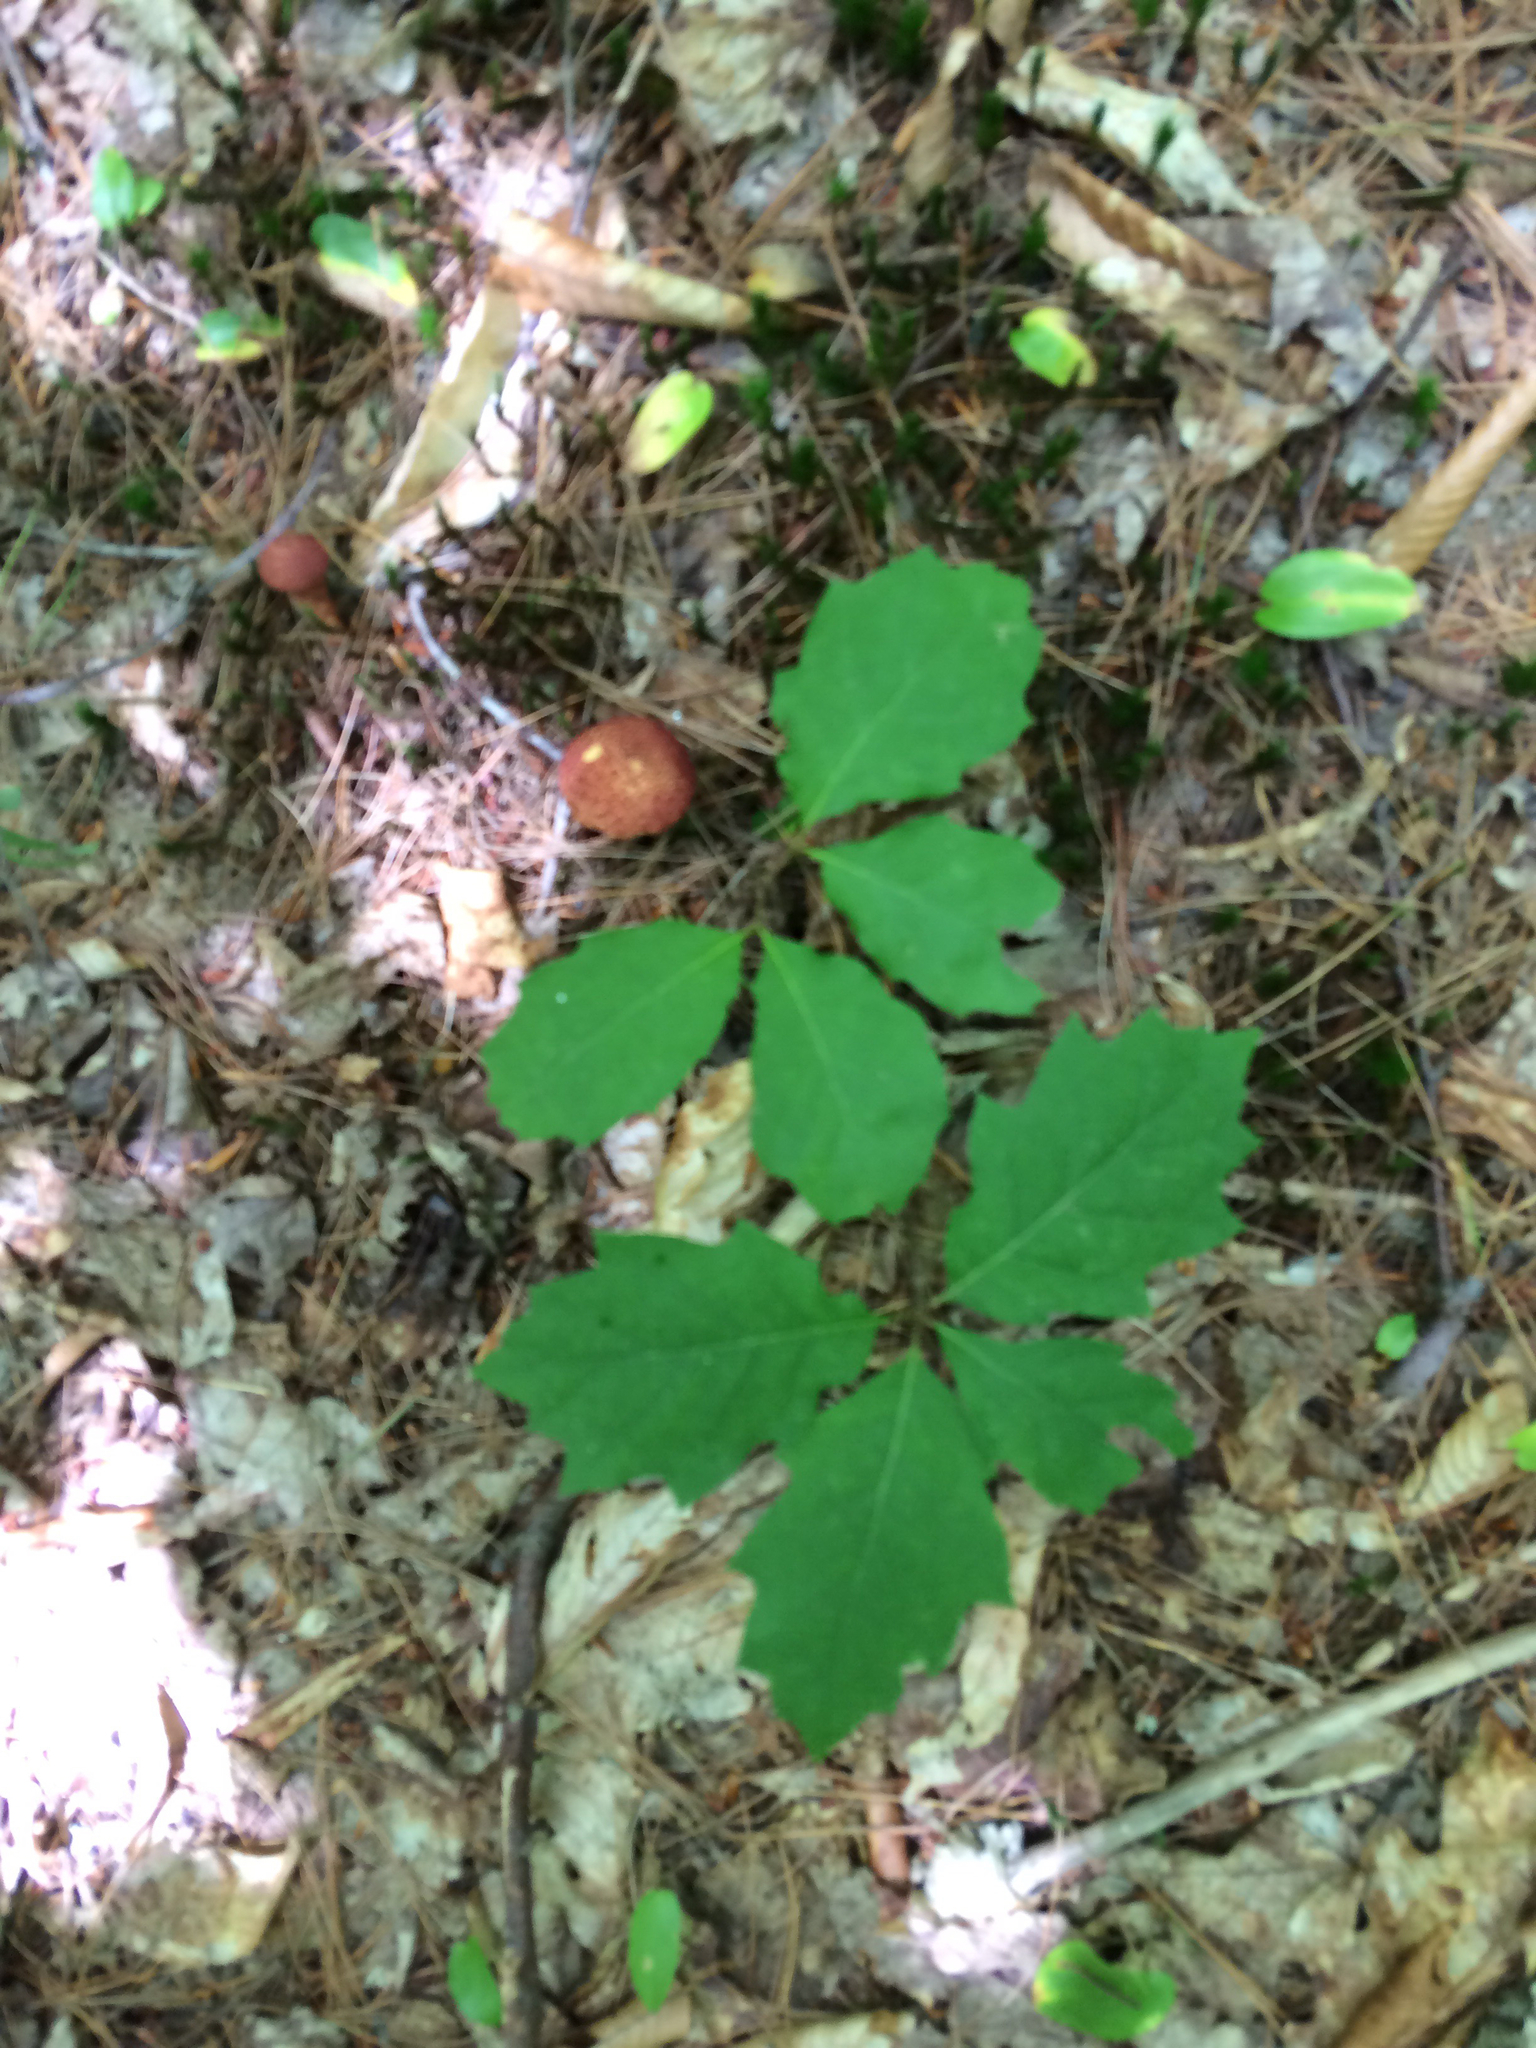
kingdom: Plantae
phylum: Tracheophyta
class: Magnoliopsida
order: Fagales
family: Fagaceae
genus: Quercus
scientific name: Quercus rubra
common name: Red oak
